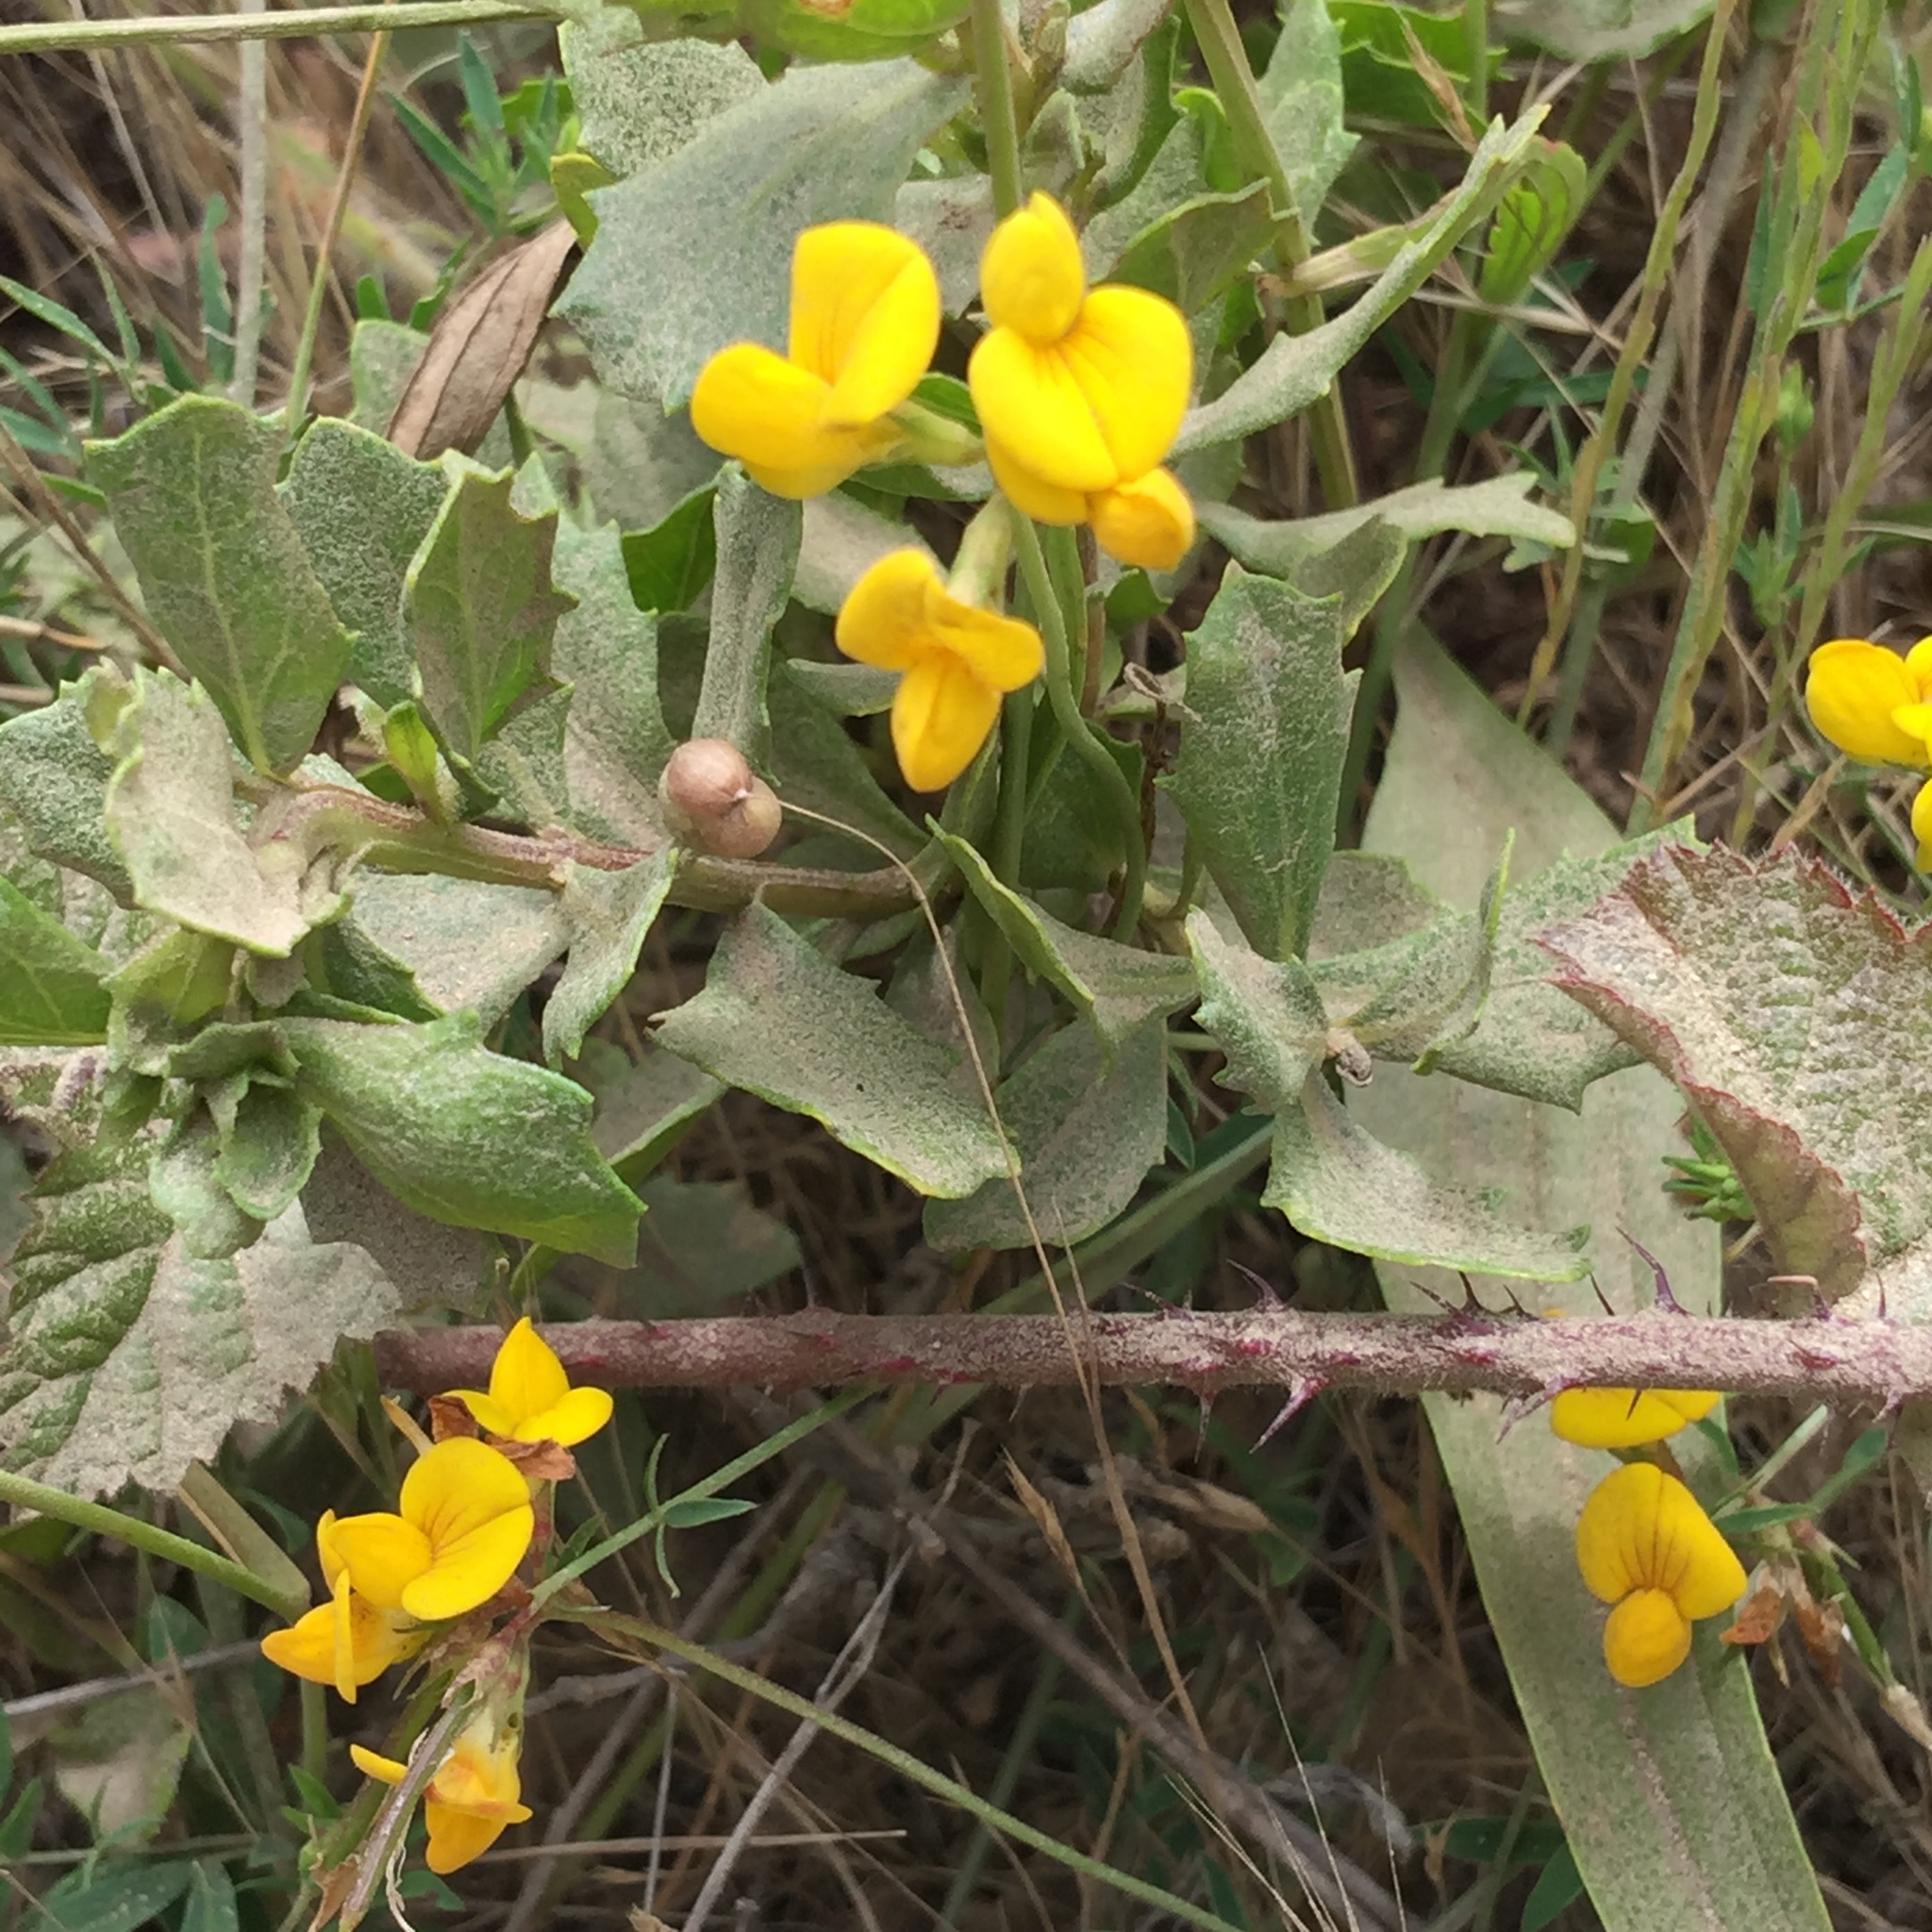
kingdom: Plantae
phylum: Tracheophyta
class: Magnoliopsida
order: Fabales
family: Fabaceae
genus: Lotus
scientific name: Lotus corniculatus
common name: Common bird's-foot-trefoil
